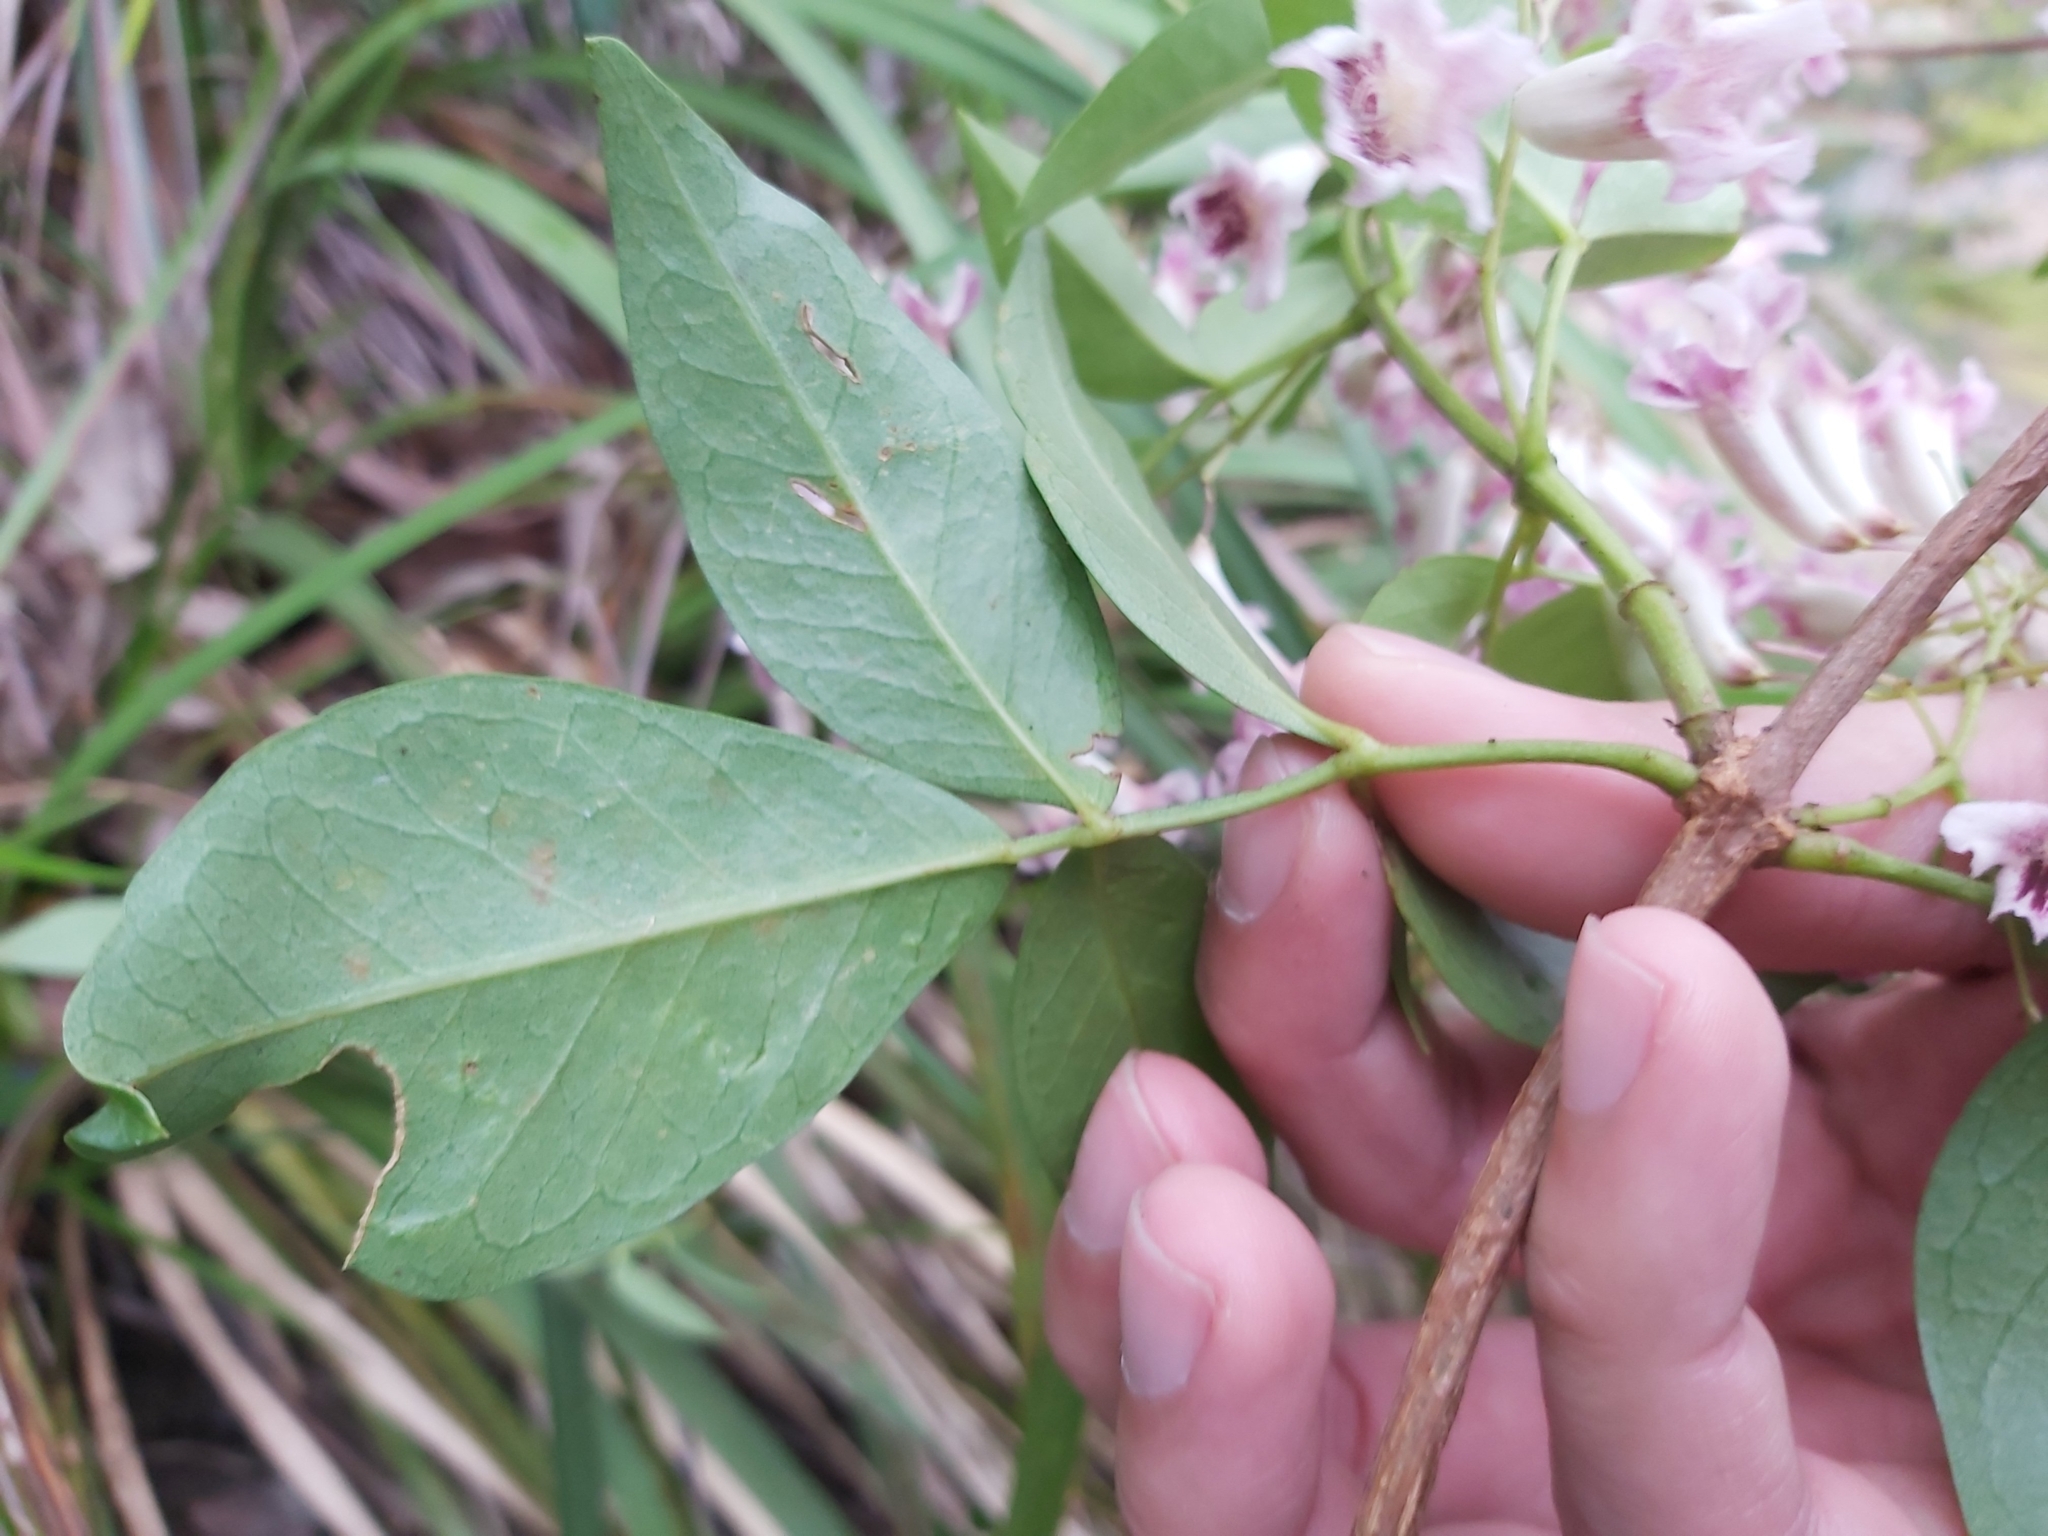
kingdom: Plantae
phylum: Tracheophyta
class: Magnoliopsida
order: Lamiales
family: Bignoniaceae
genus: Pandorea
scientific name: Pandorea pandorana
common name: Wonga-wonga-vine
